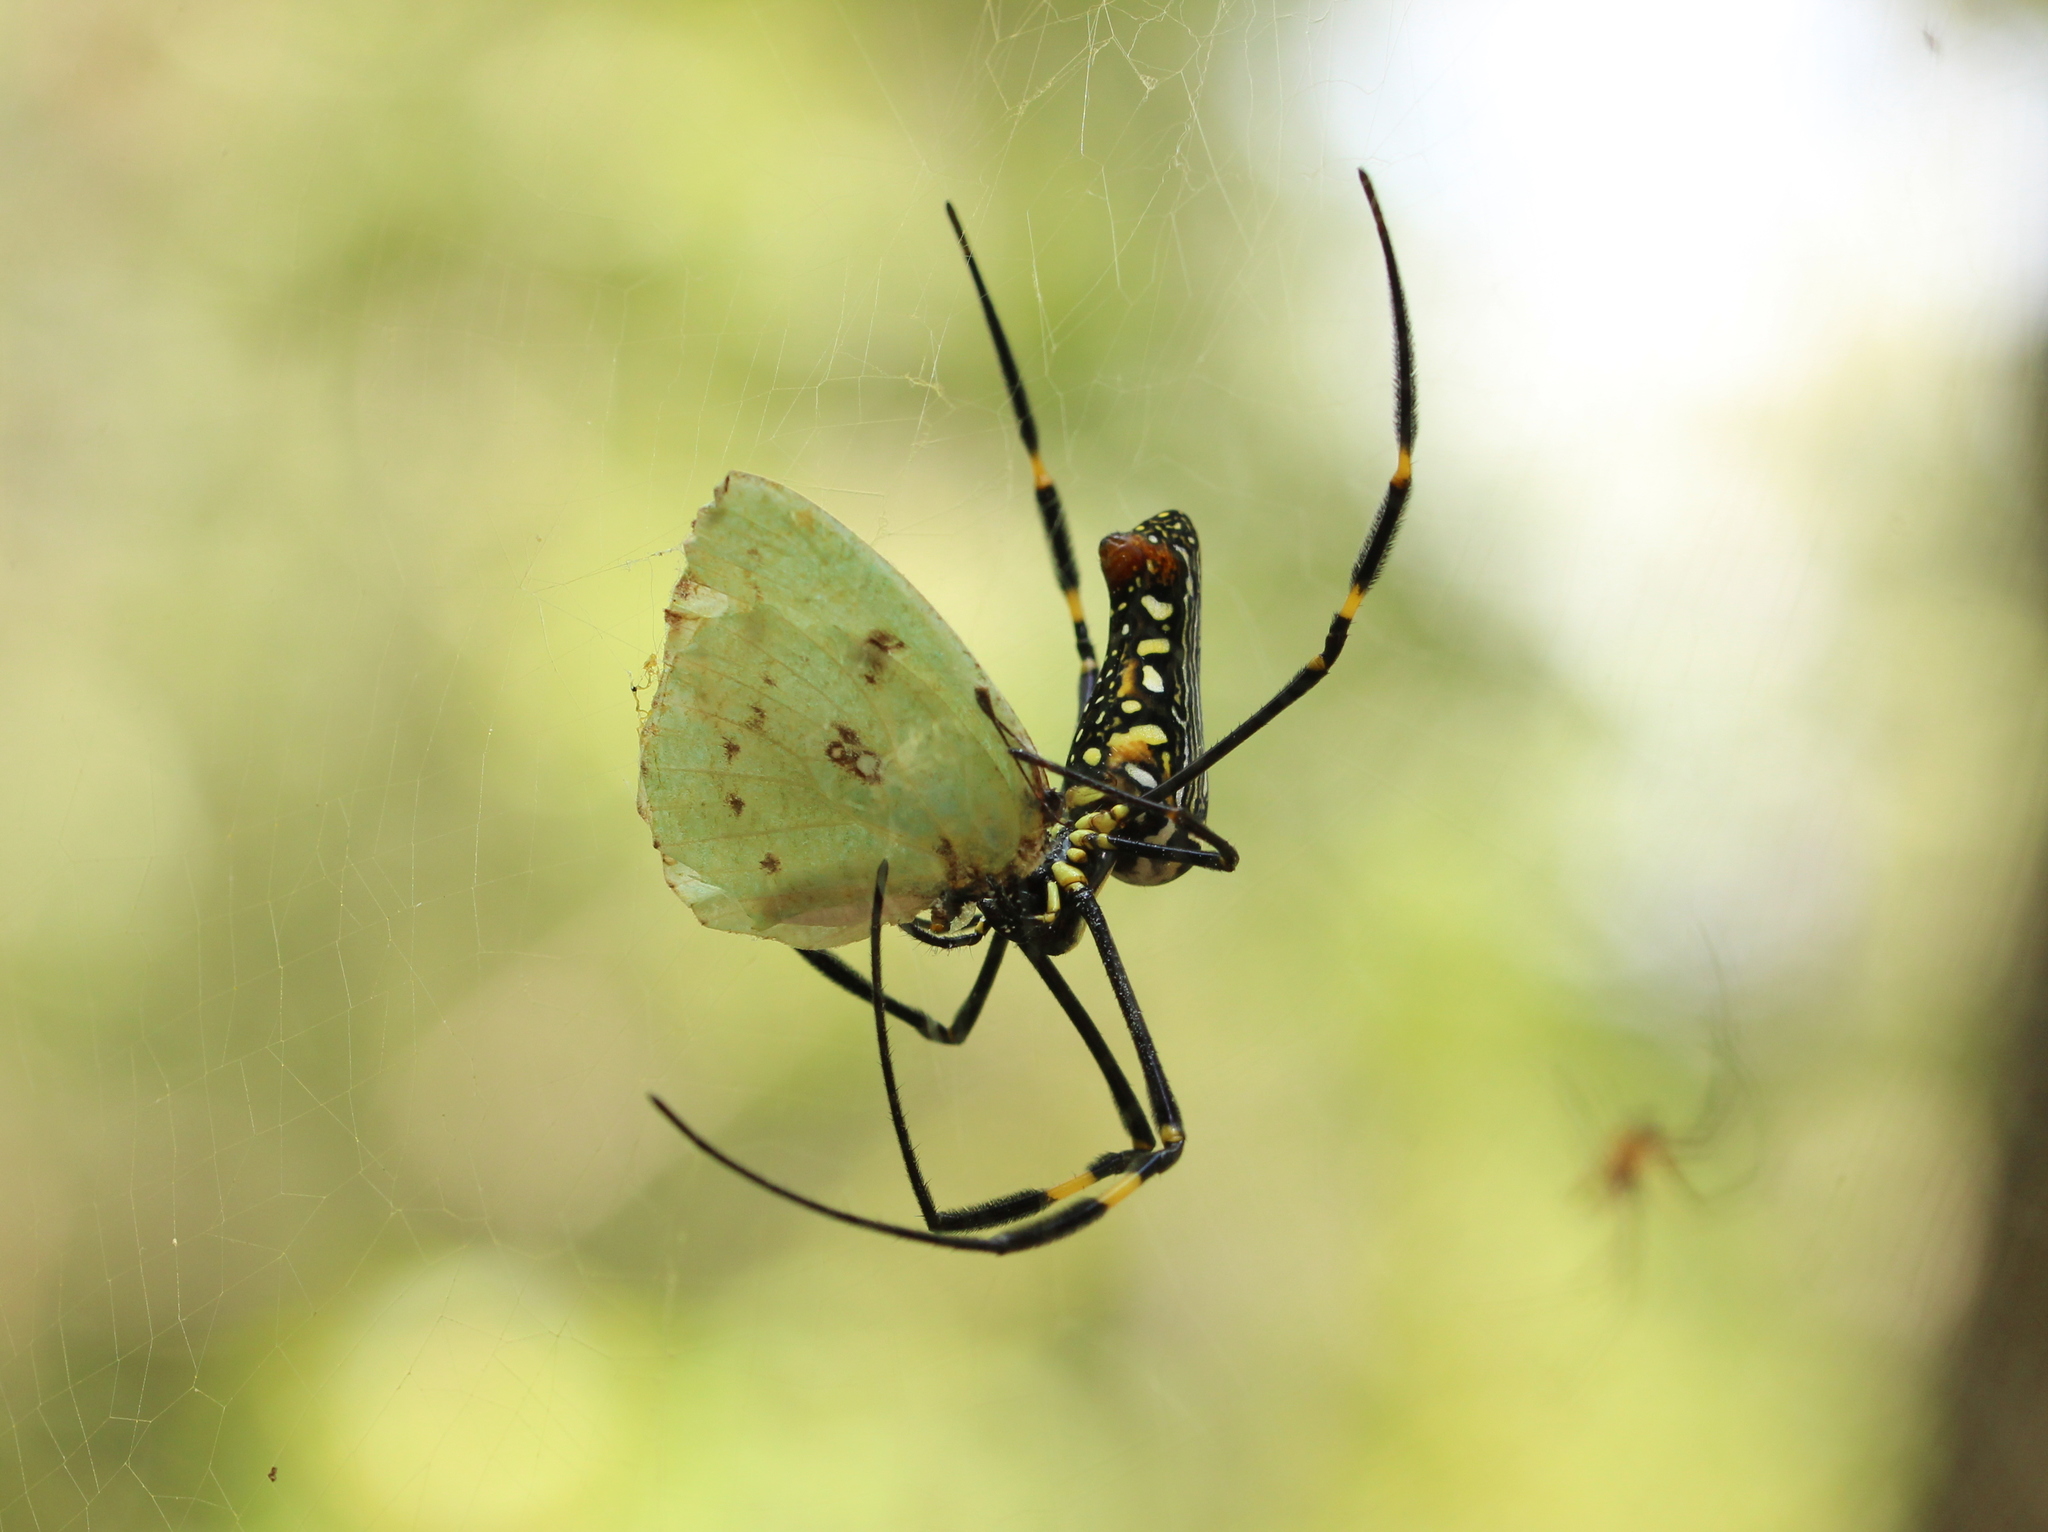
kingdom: Animalia
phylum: Arthropoda
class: Insecta
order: Lepidoptera
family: Pieridae
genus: Catopsilia
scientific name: Catopsilia pyranthe
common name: Mottled emigrant
